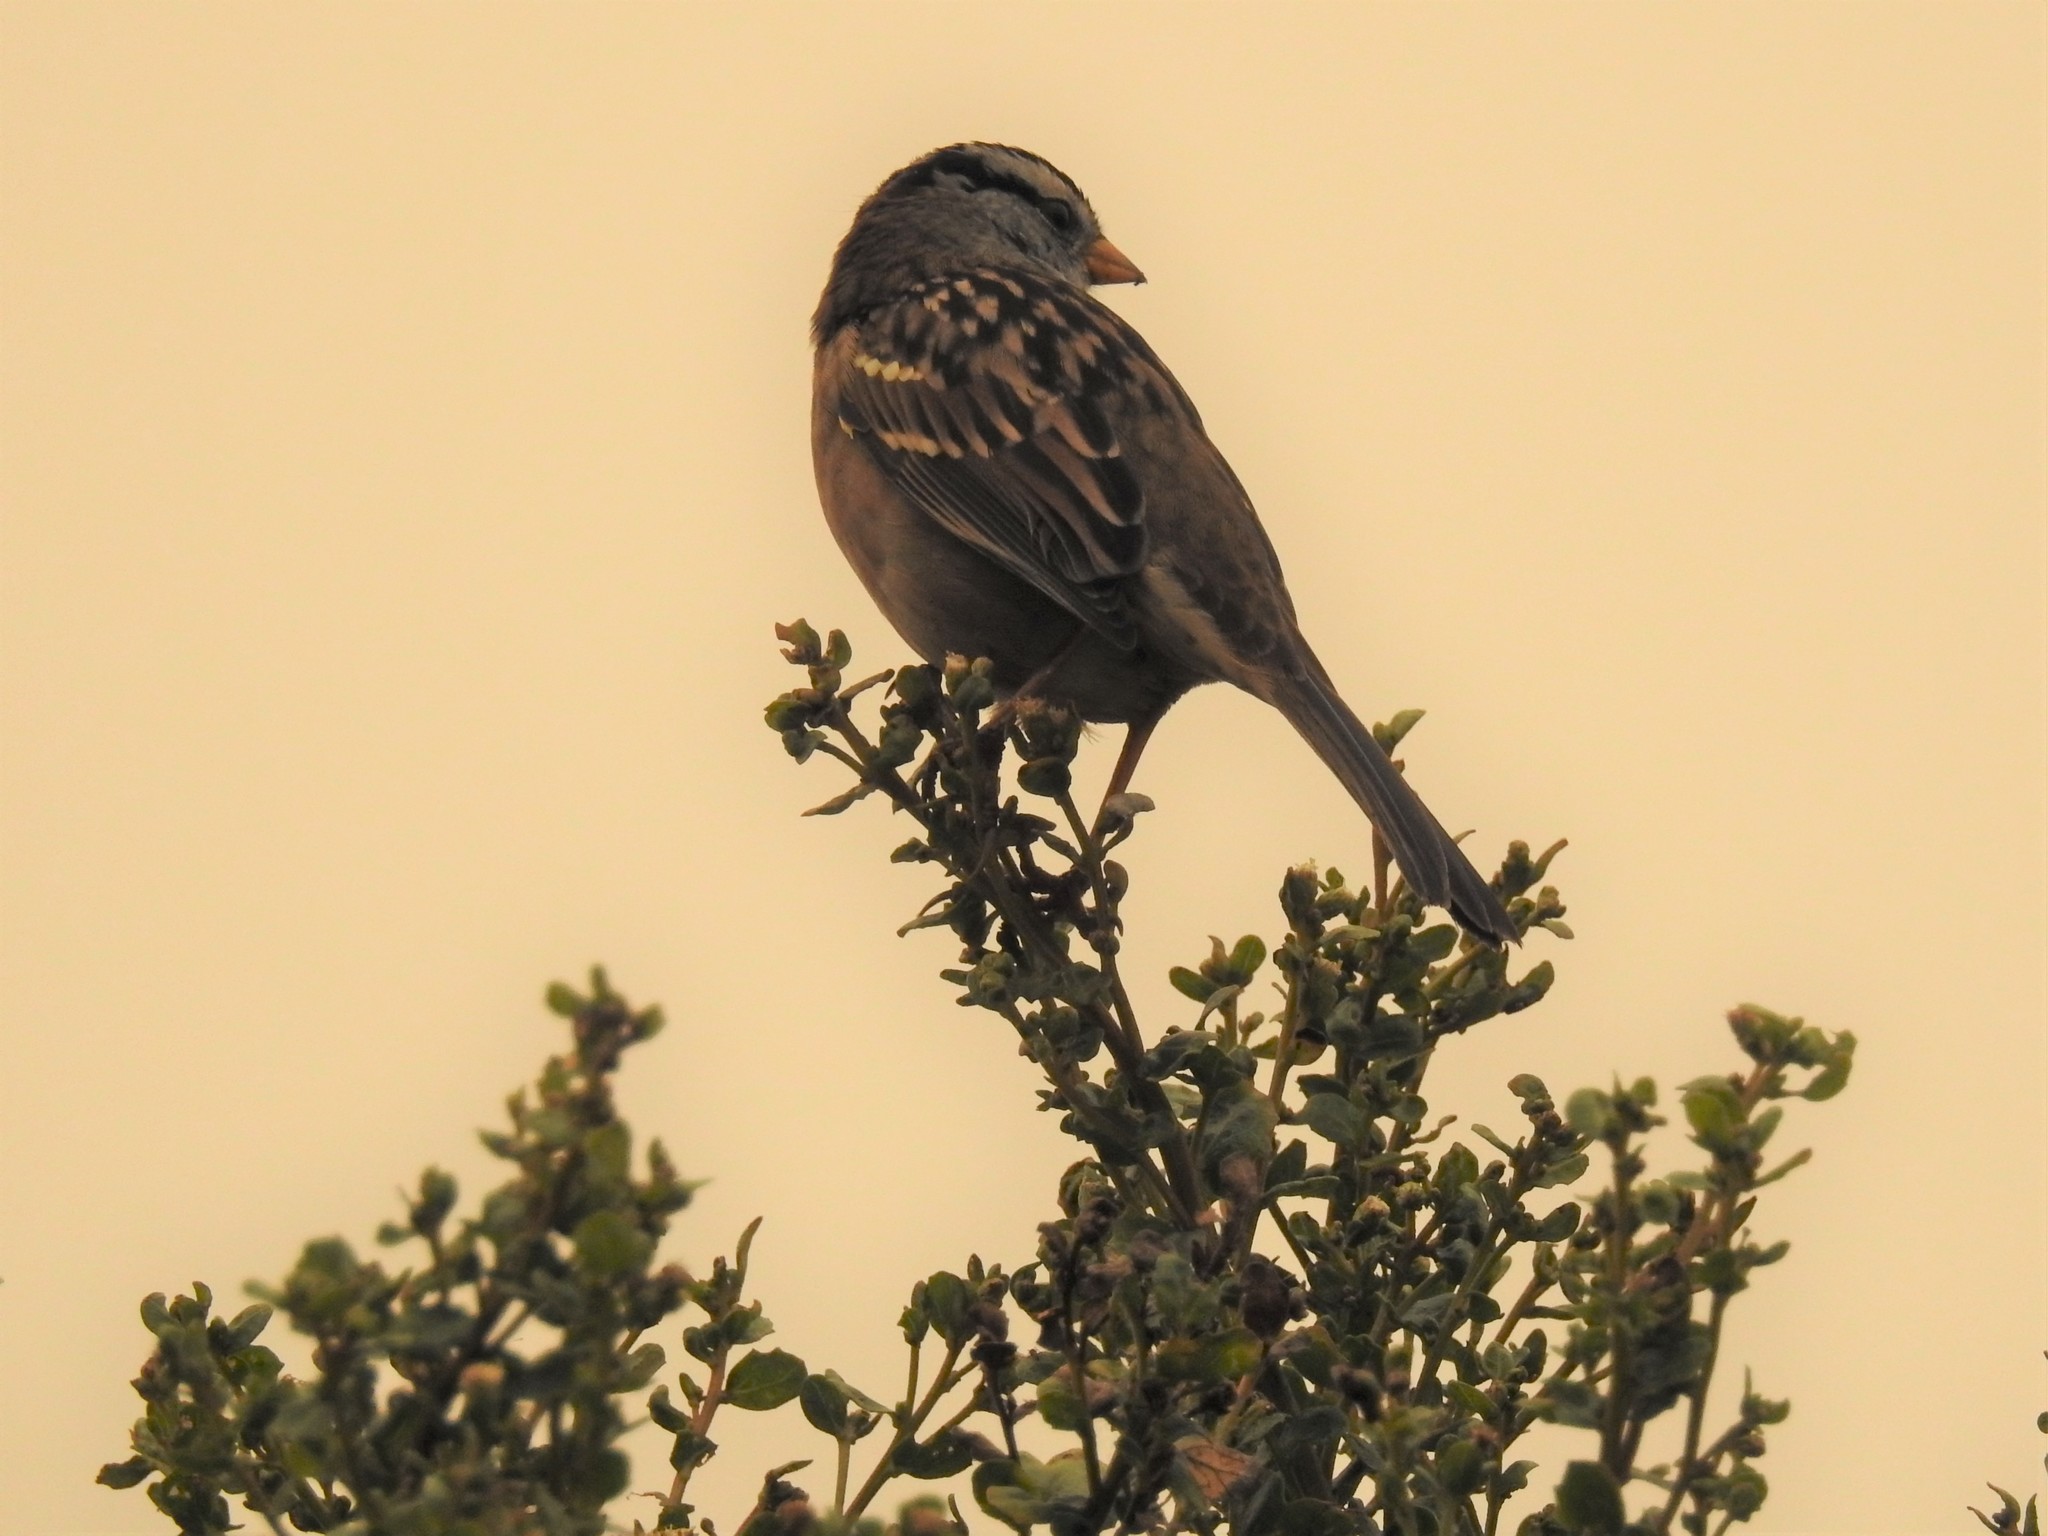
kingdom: Animalia
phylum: Chordata
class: Aves
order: Passeriformes
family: Passerellidae
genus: Zonotrichia
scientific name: Zonotrichia leucophrys
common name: White-crowned sparrow
